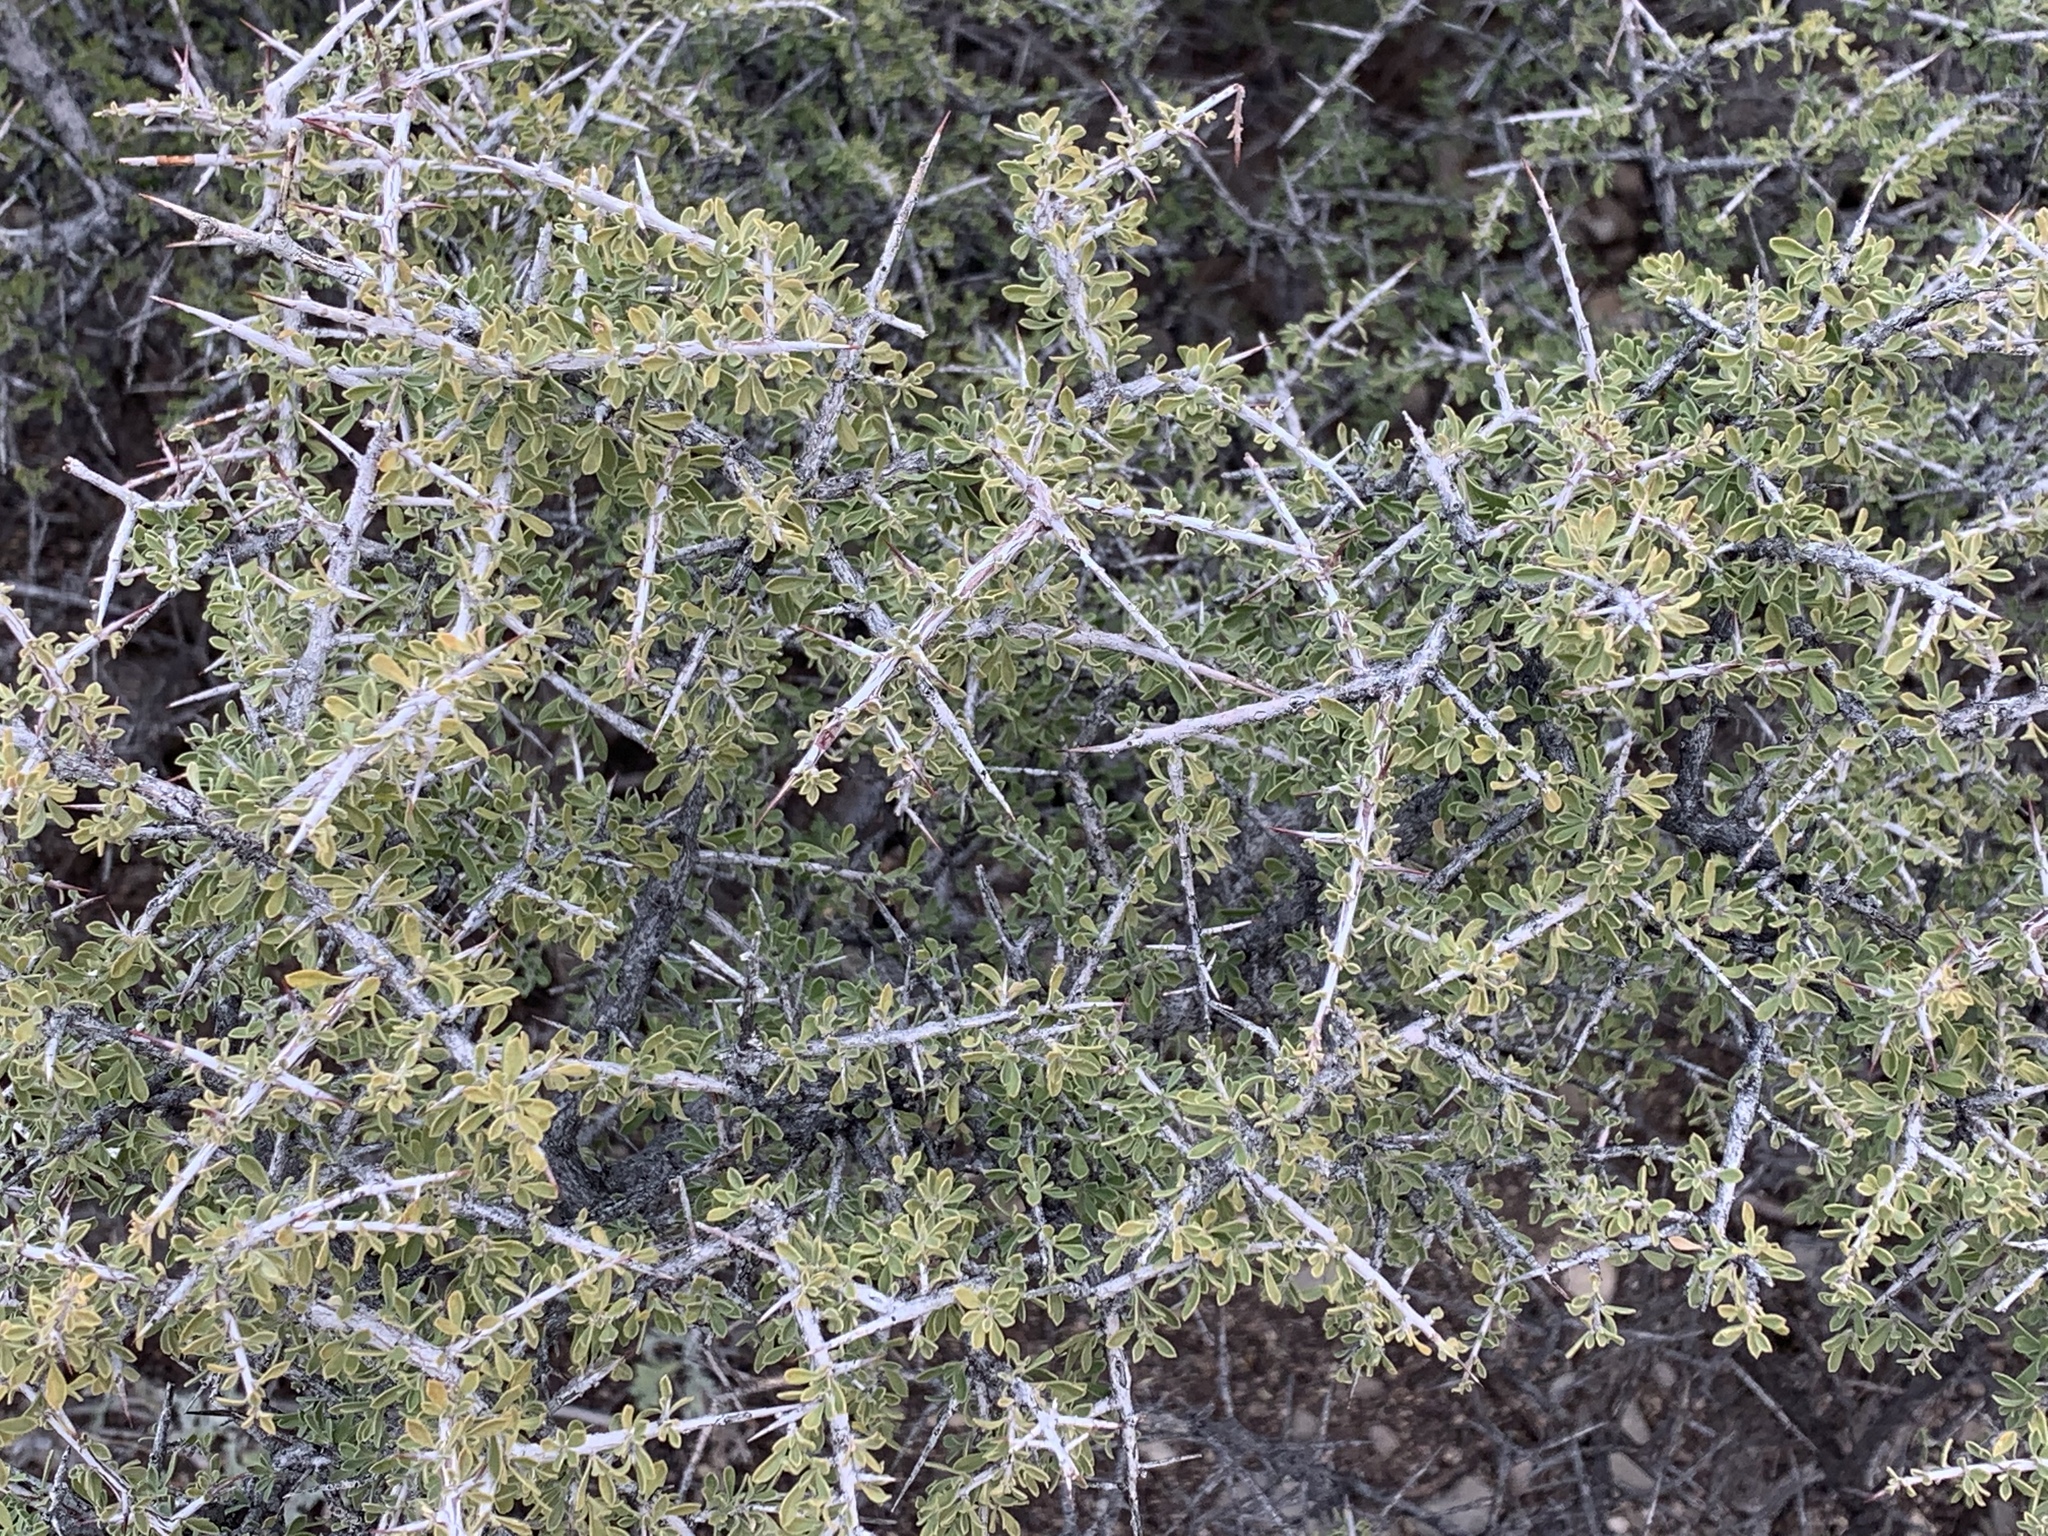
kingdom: Plantae
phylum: Tracheophyta
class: Magnoliopsida
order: Rosales
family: Rhamnaceae
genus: Condalia
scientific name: Condalia warnockii
